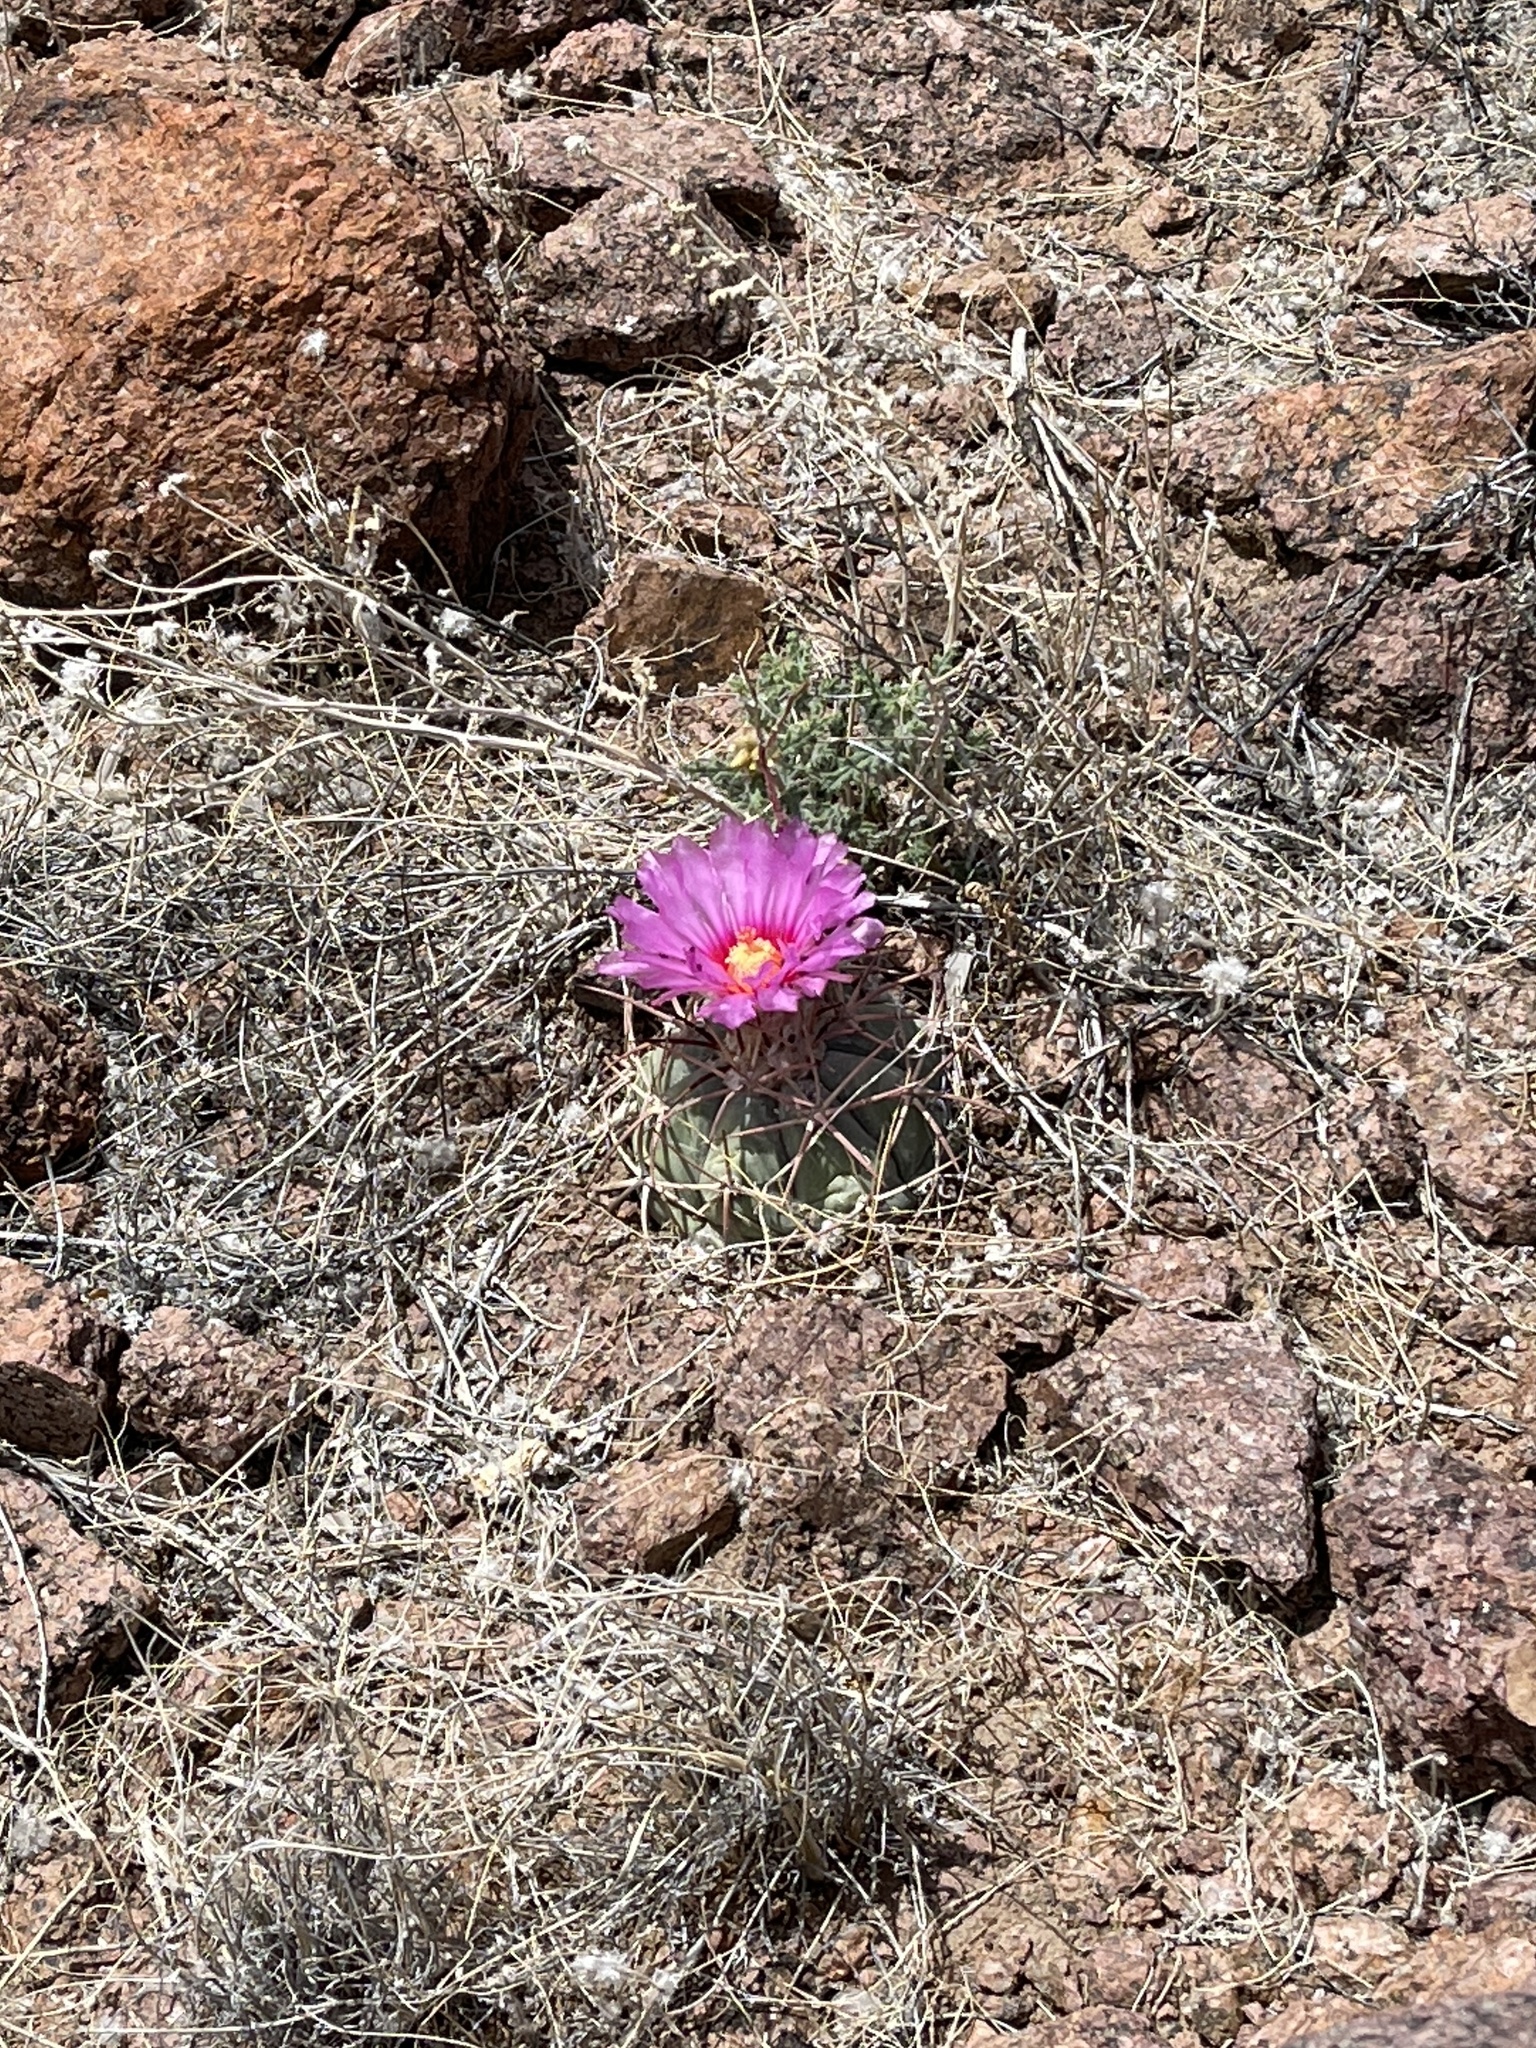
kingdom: Plantae
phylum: Tracheophyta
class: Magnoliopsida
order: Caryophyllales
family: Cactaceae
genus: Echinocactus
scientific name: Echinocactus horizonthalonius
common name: Devilshead
